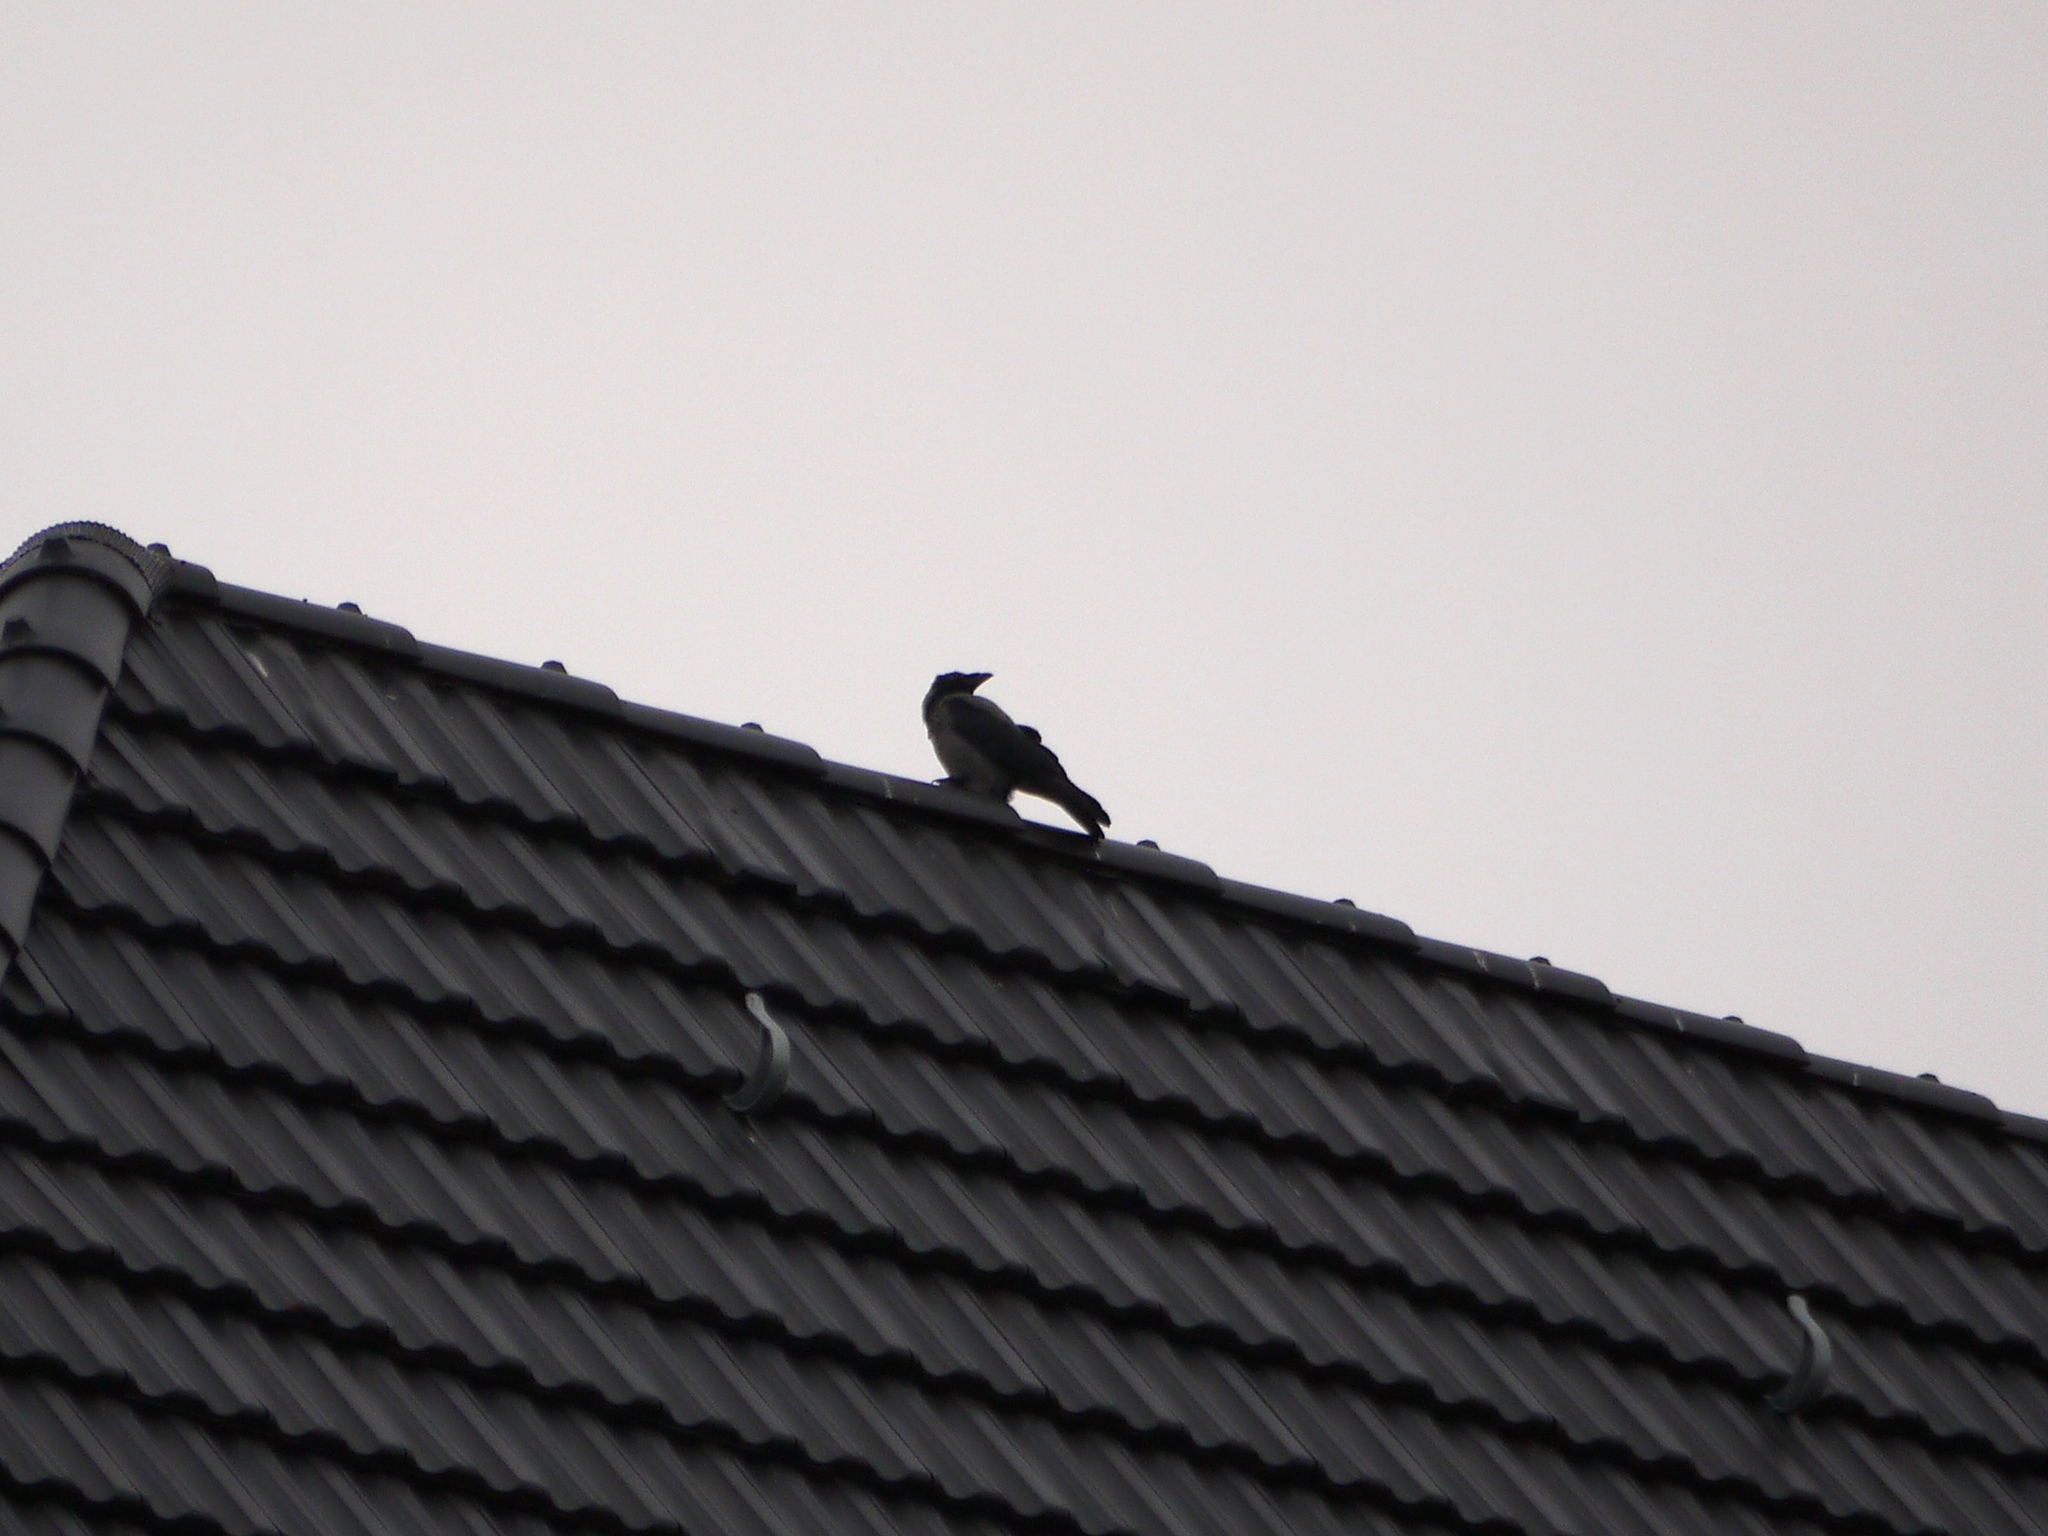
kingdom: Animalia
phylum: Chordata
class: Aves
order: Passeriformes
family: Corvidae
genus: Corvus
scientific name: Corvus cornix
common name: Hooded crow
